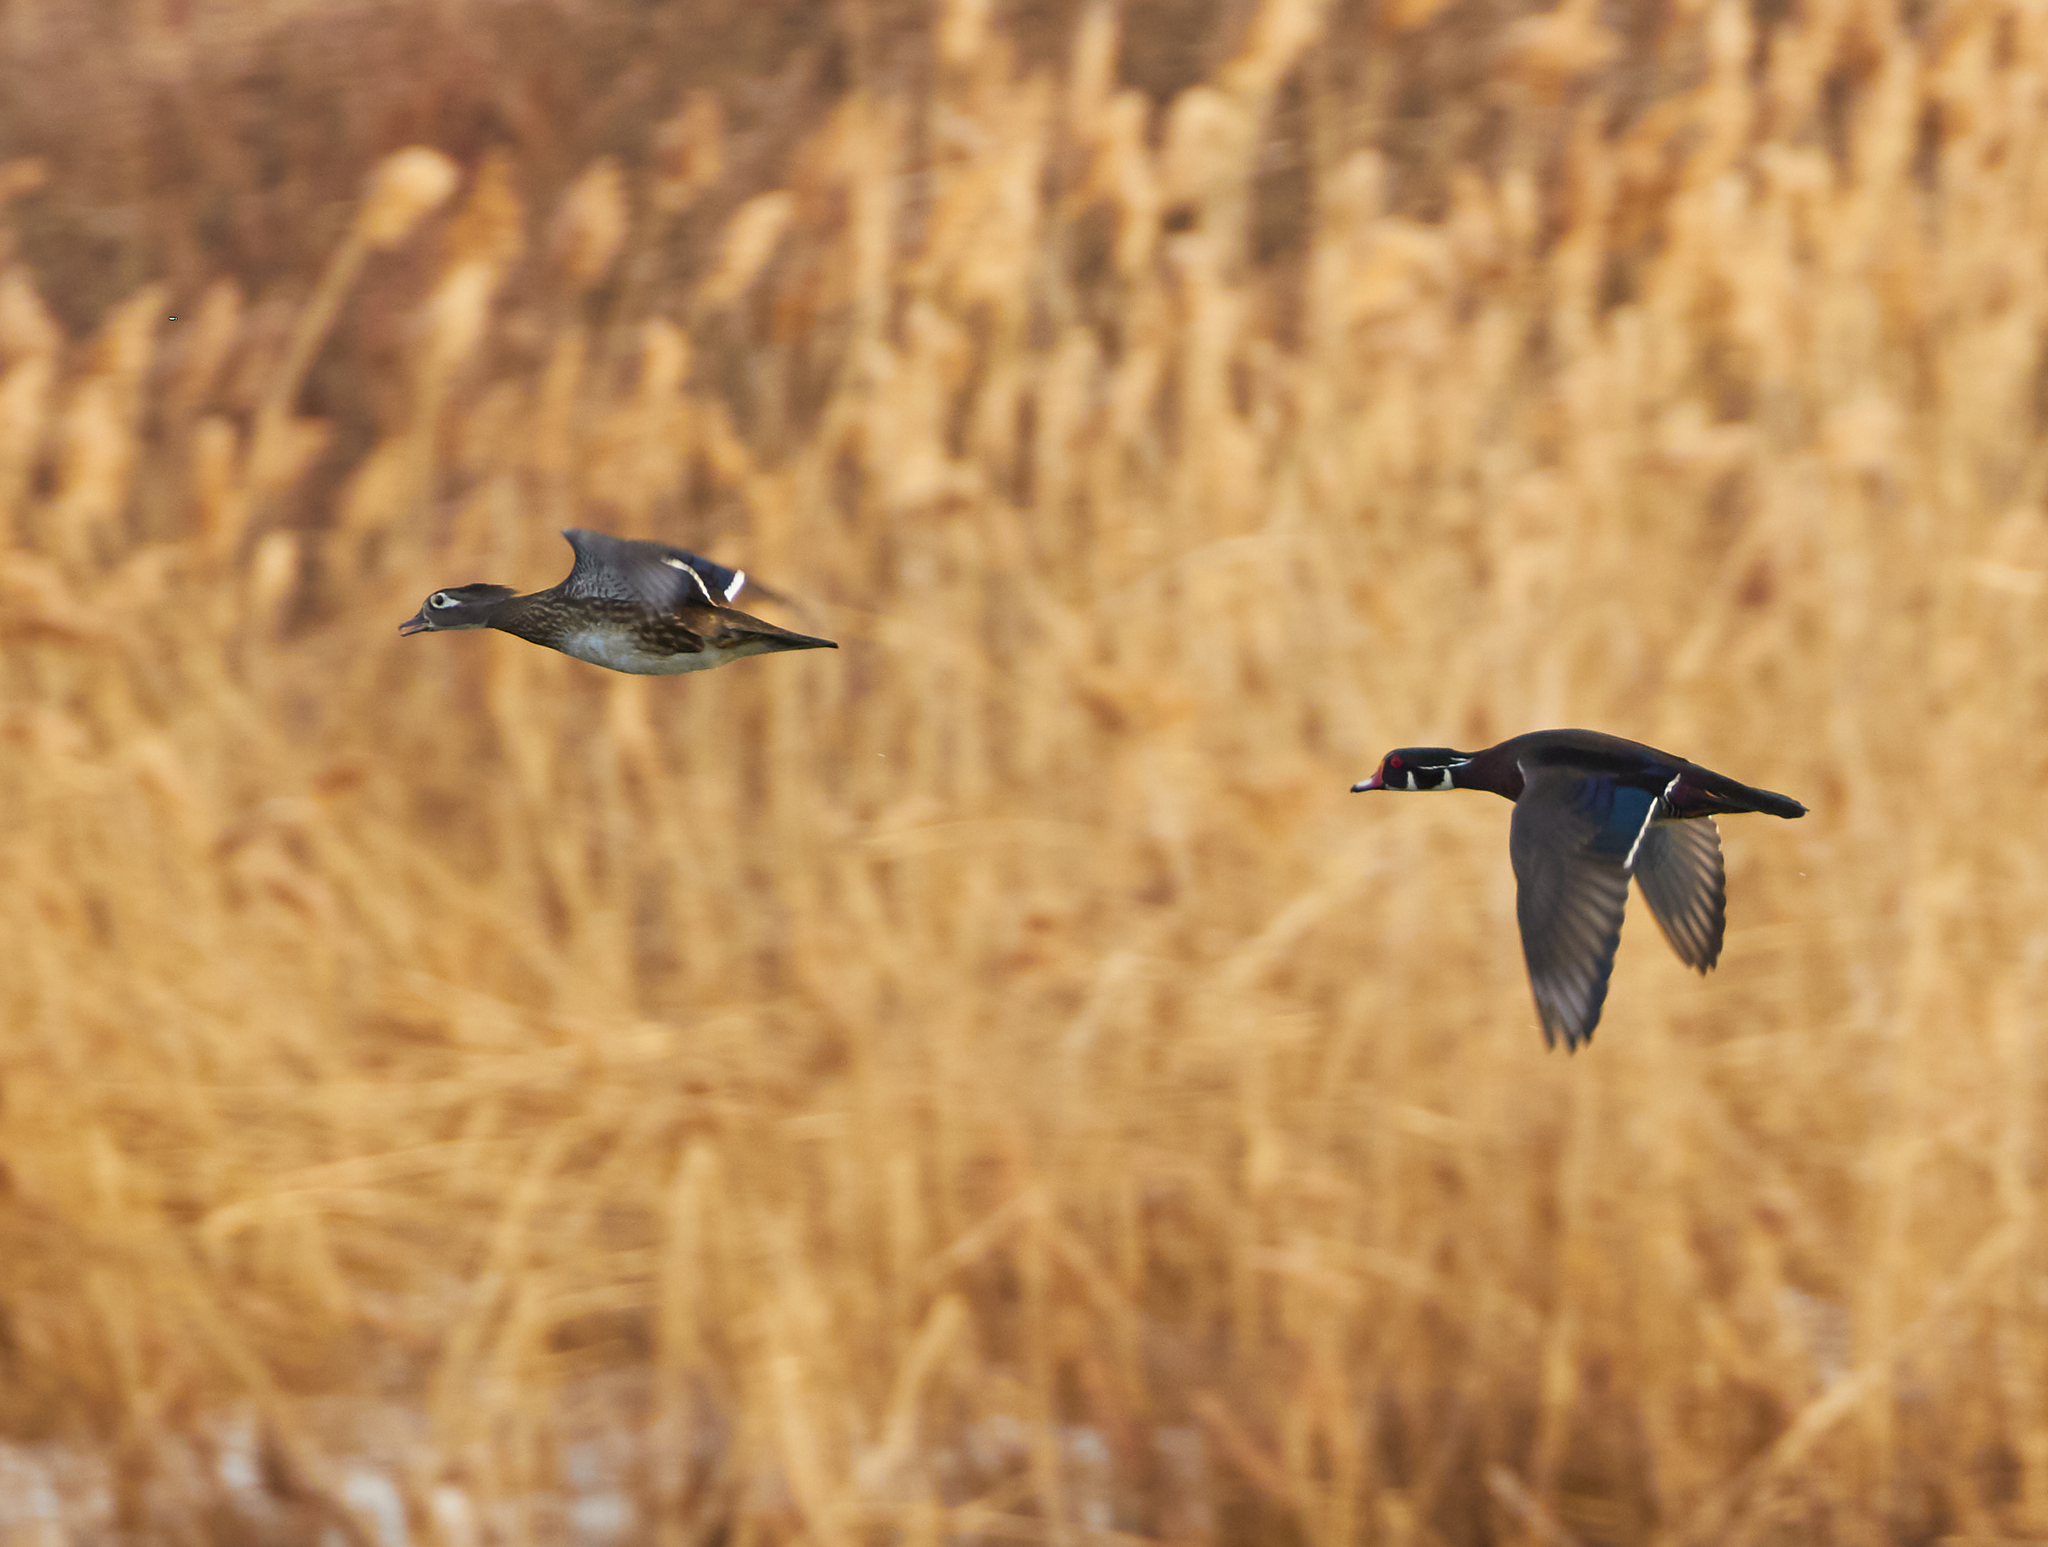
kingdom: Animalia
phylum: Chordata
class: Aves
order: Anseriformes
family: Anatidae
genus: Aix
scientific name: Aix sponsa
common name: Wood duck
